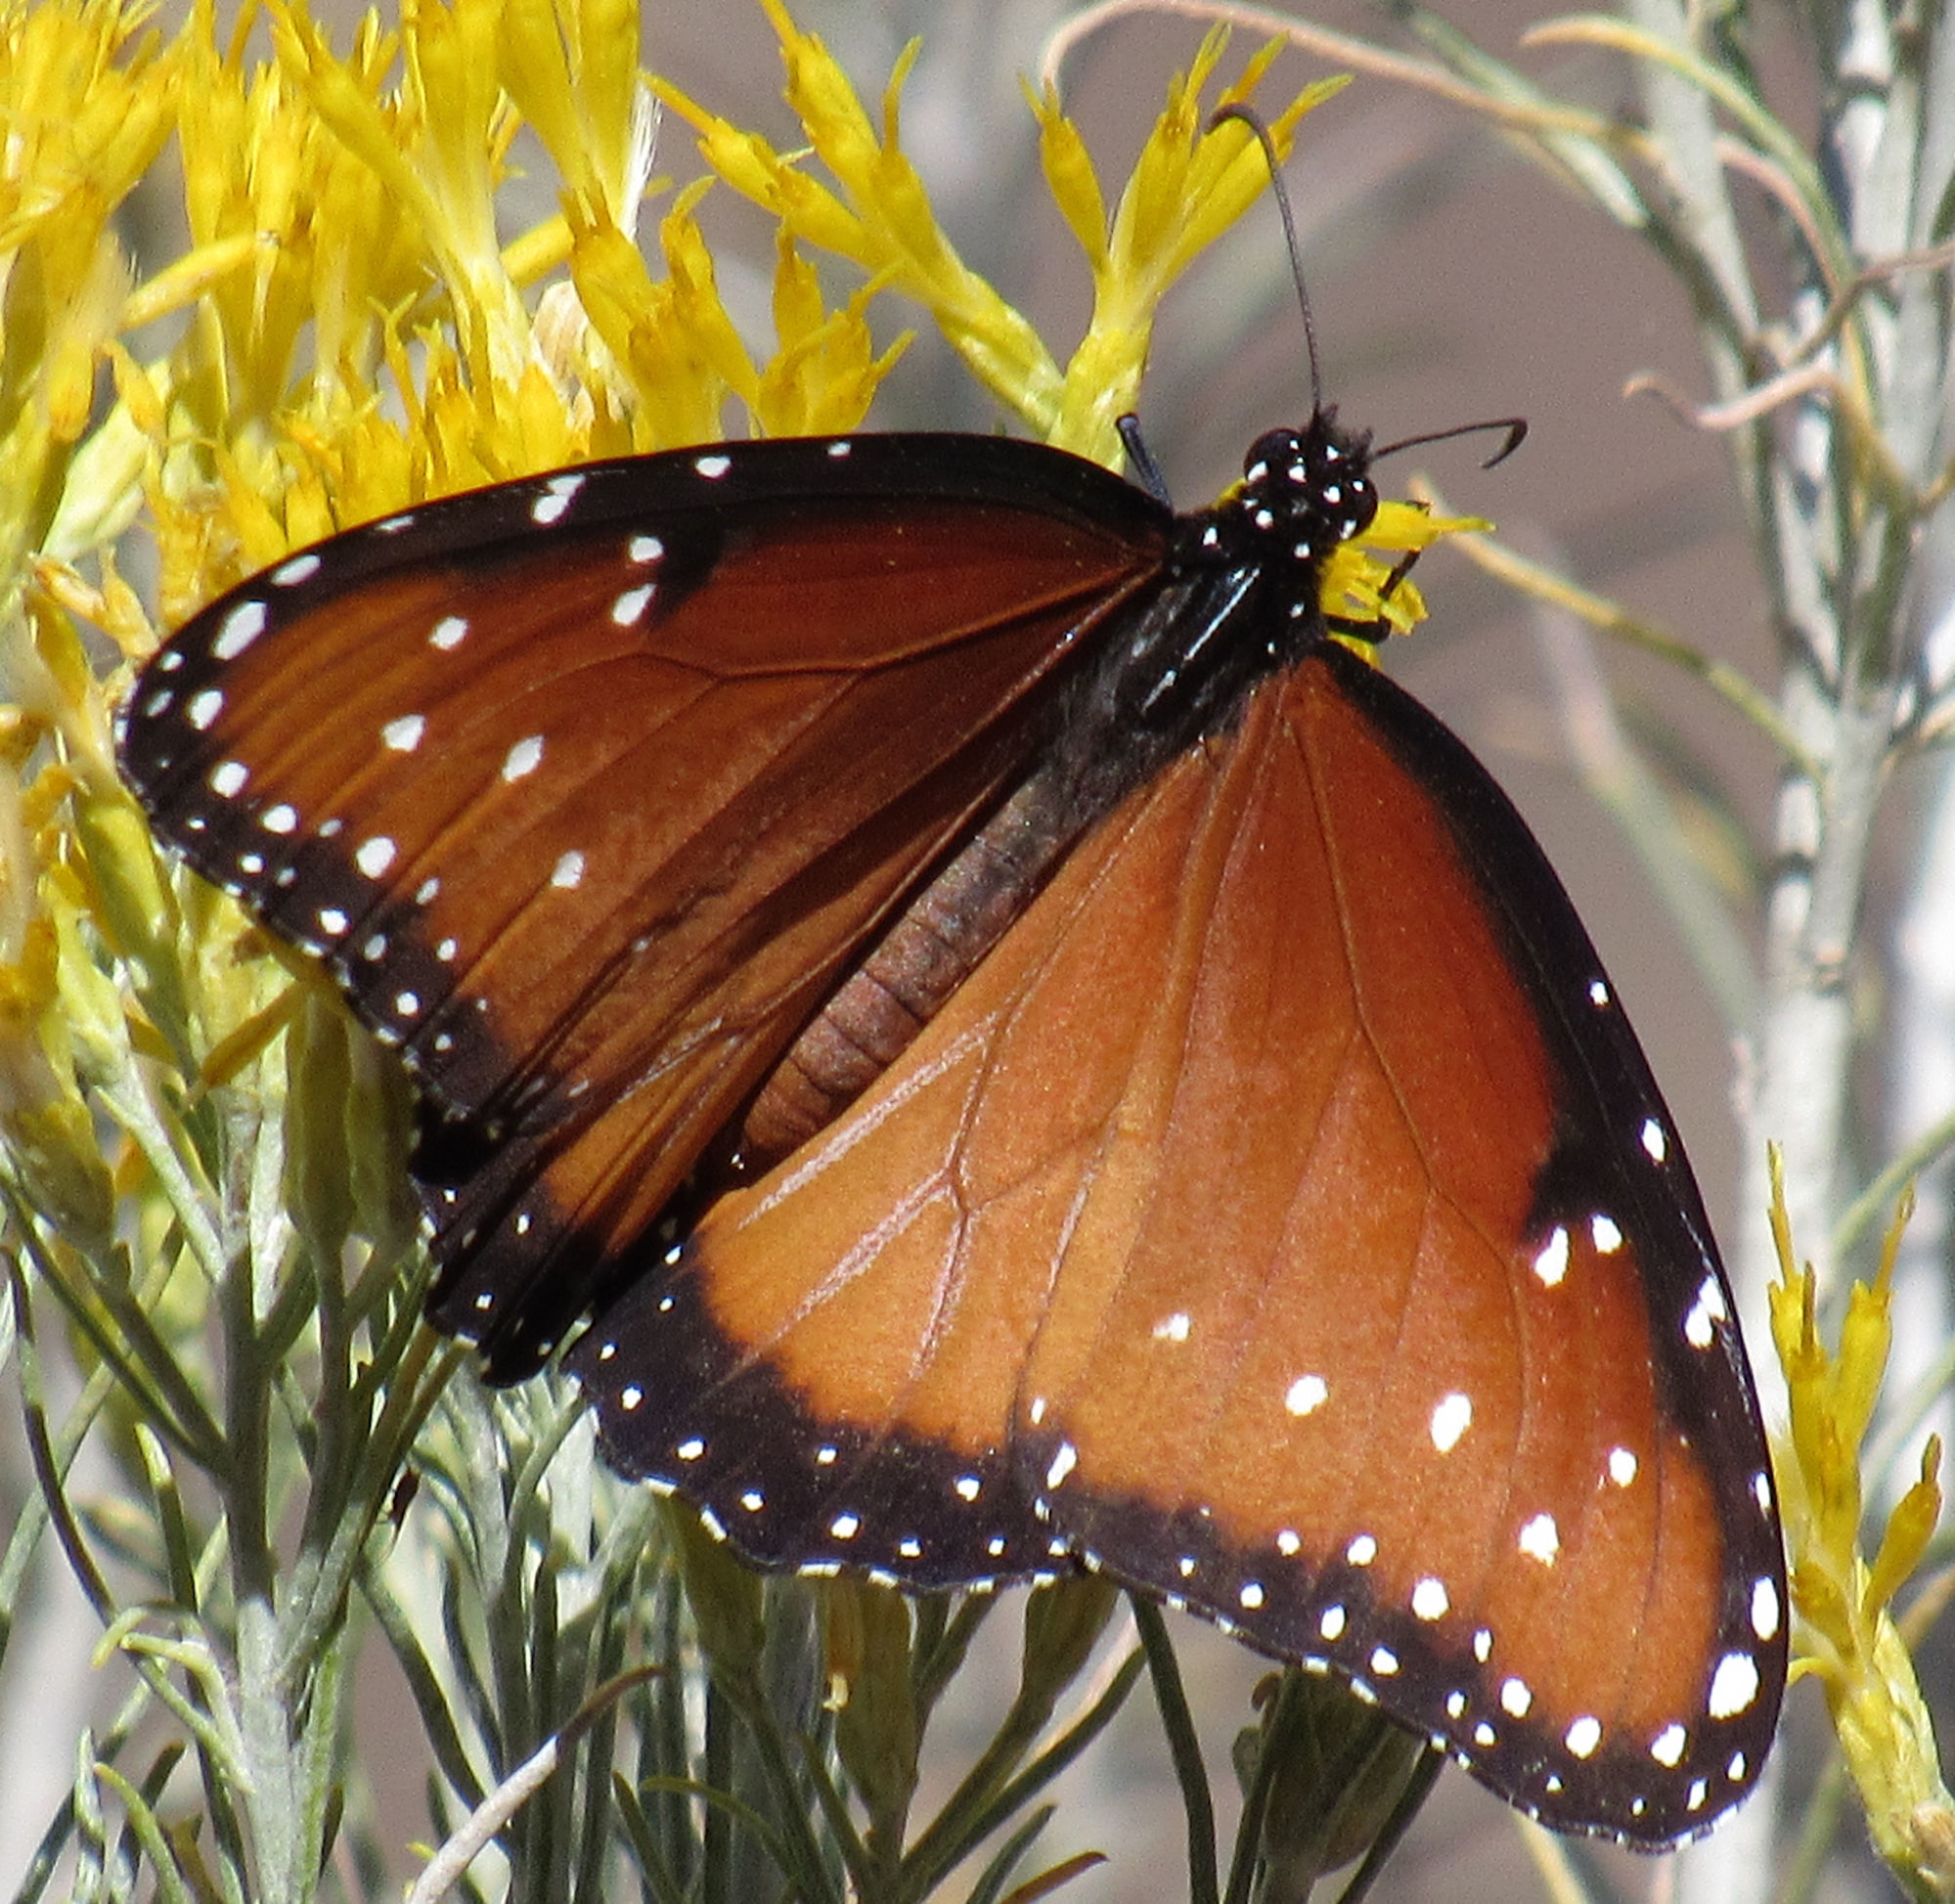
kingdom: Animalia
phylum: Arthropoda
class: Insecta
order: Lepidoptera
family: Nymphalidae
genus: Danaus
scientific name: Danaus gilippus
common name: Queen
